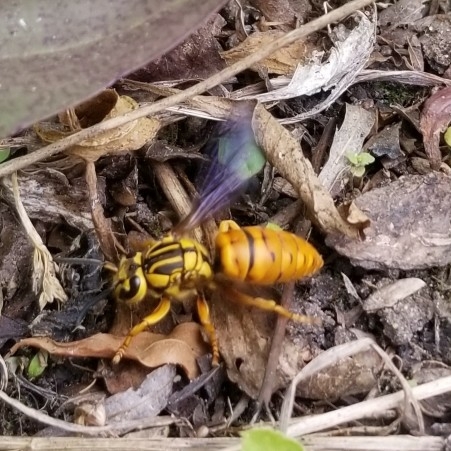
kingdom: Animalia
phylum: Arthropoda
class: Insecta
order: Hymenoptera
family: Vespidae
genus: Vespula
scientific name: Vespula squamosa
